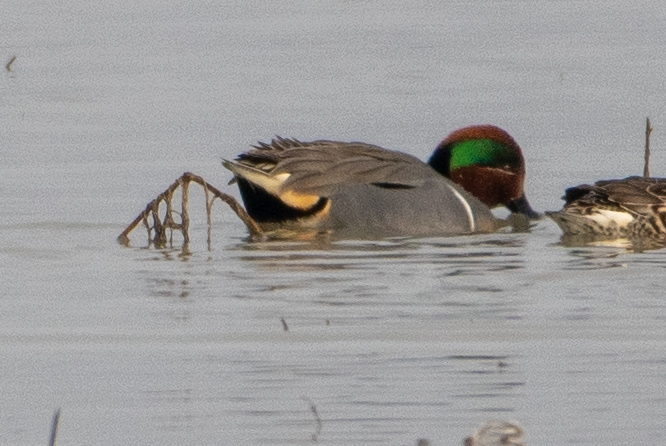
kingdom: Animalia
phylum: Chordata
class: Aves
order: Anseriformes
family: Anatidae
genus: Anas
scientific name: Anas crecca
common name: Eurasian teal
